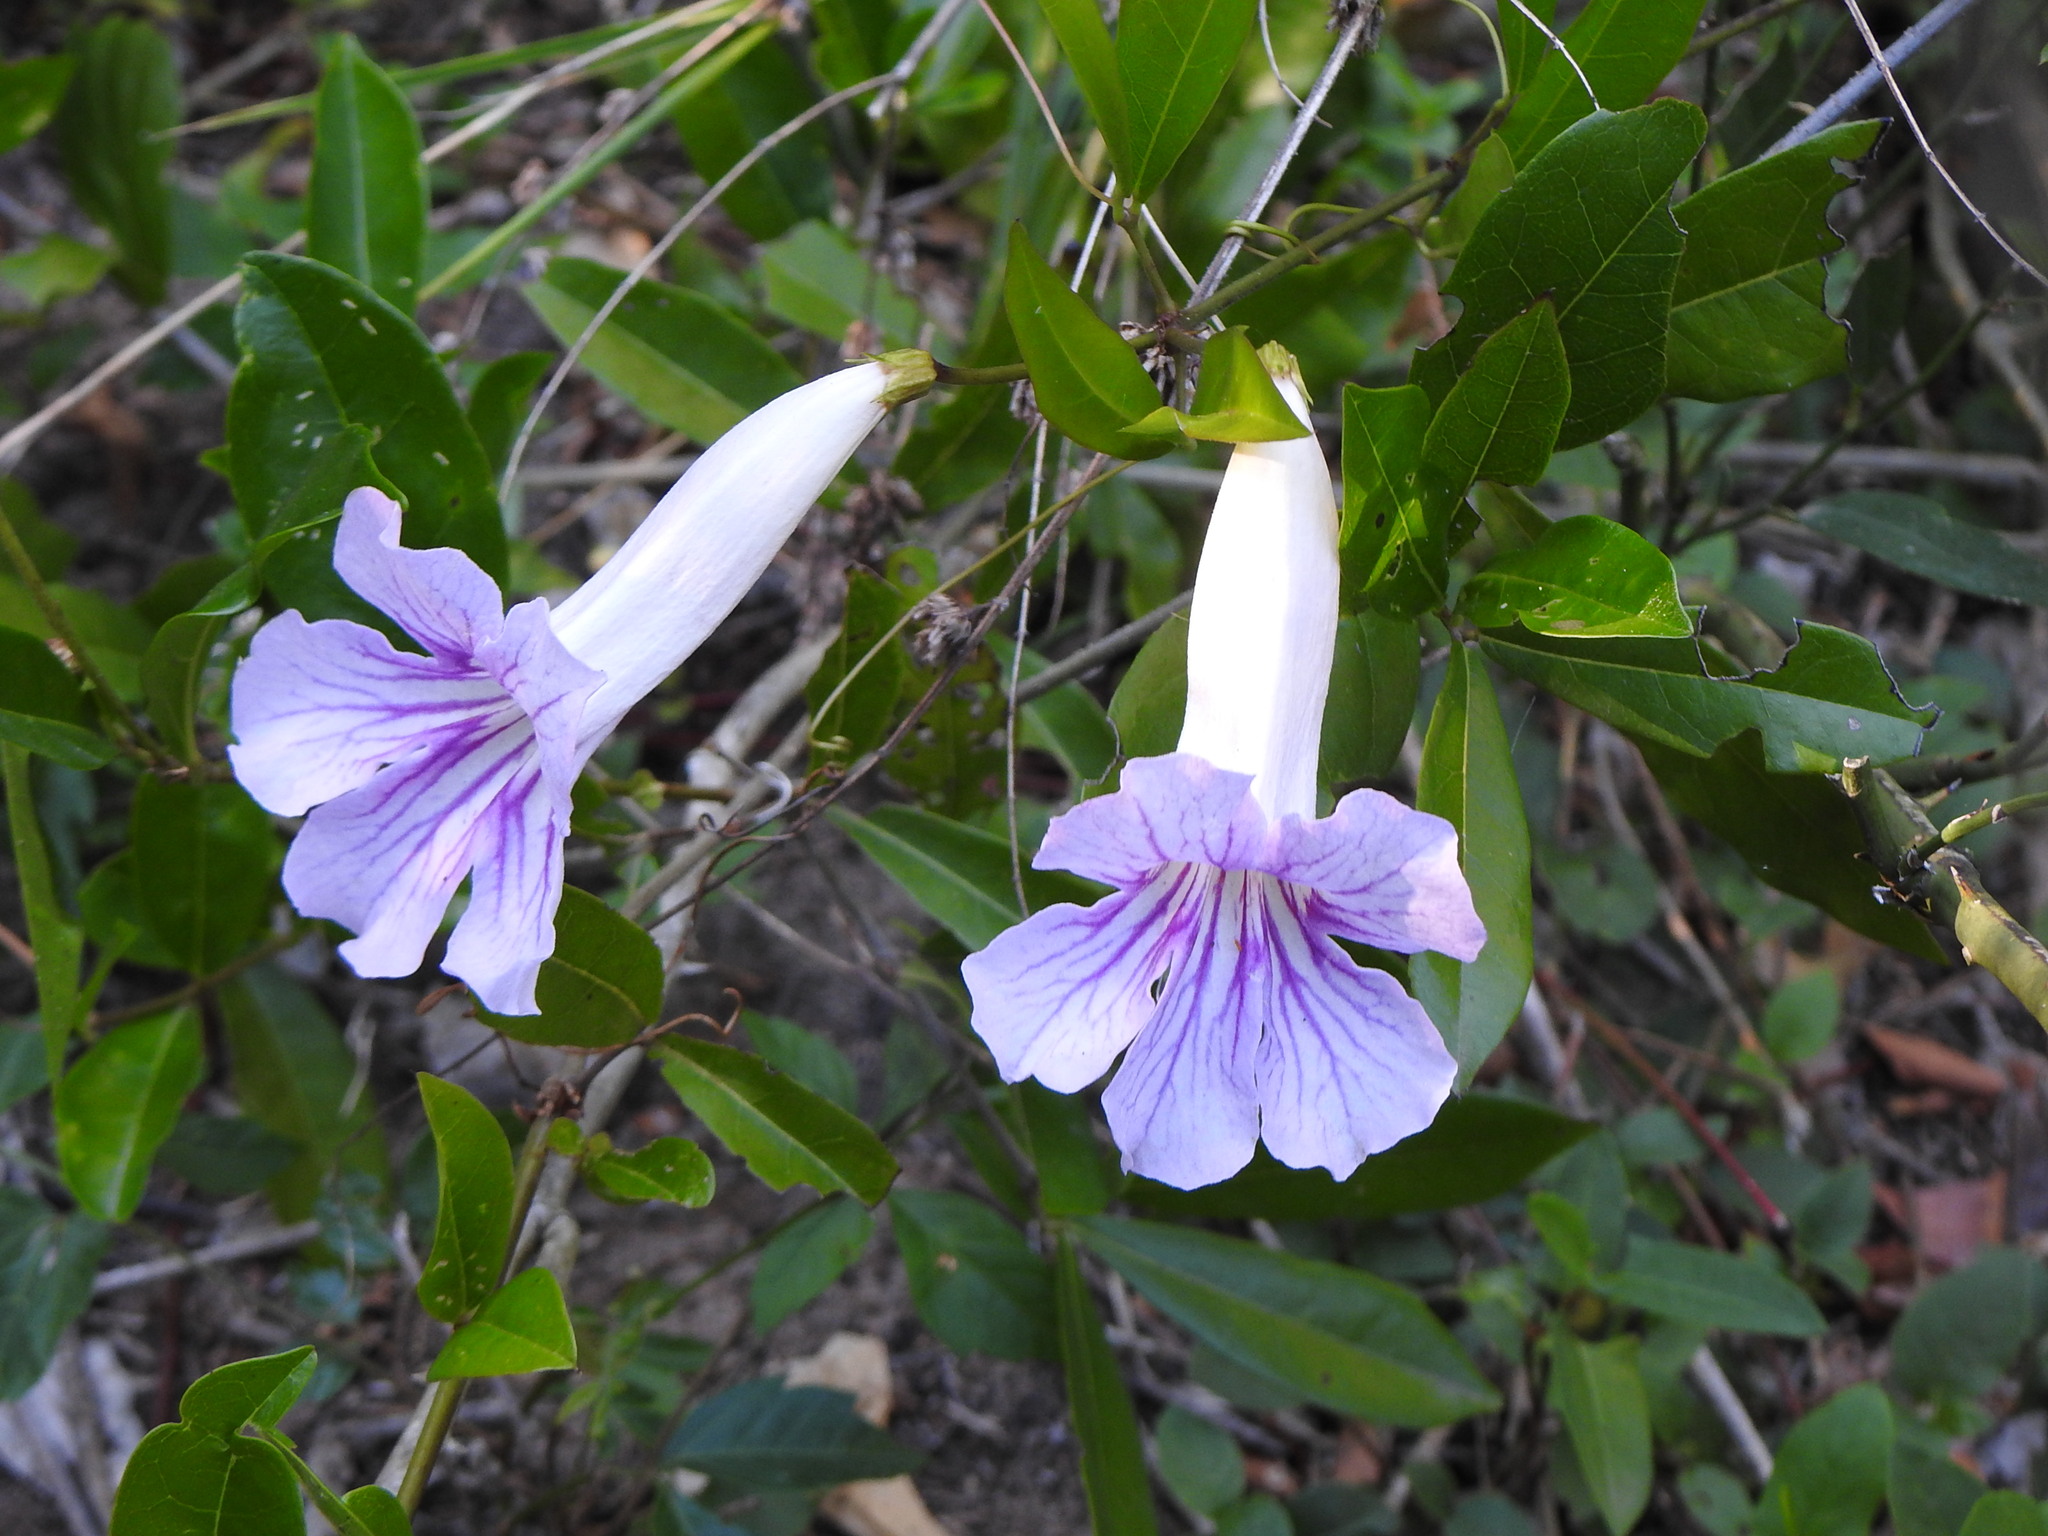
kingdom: Plantae
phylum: Tracheophyta
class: Magnoliopsida
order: Lamiales
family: Bignoniaceae
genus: Bignonia
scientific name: Bignonia callistegioides
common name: Argentine trumpetvine
